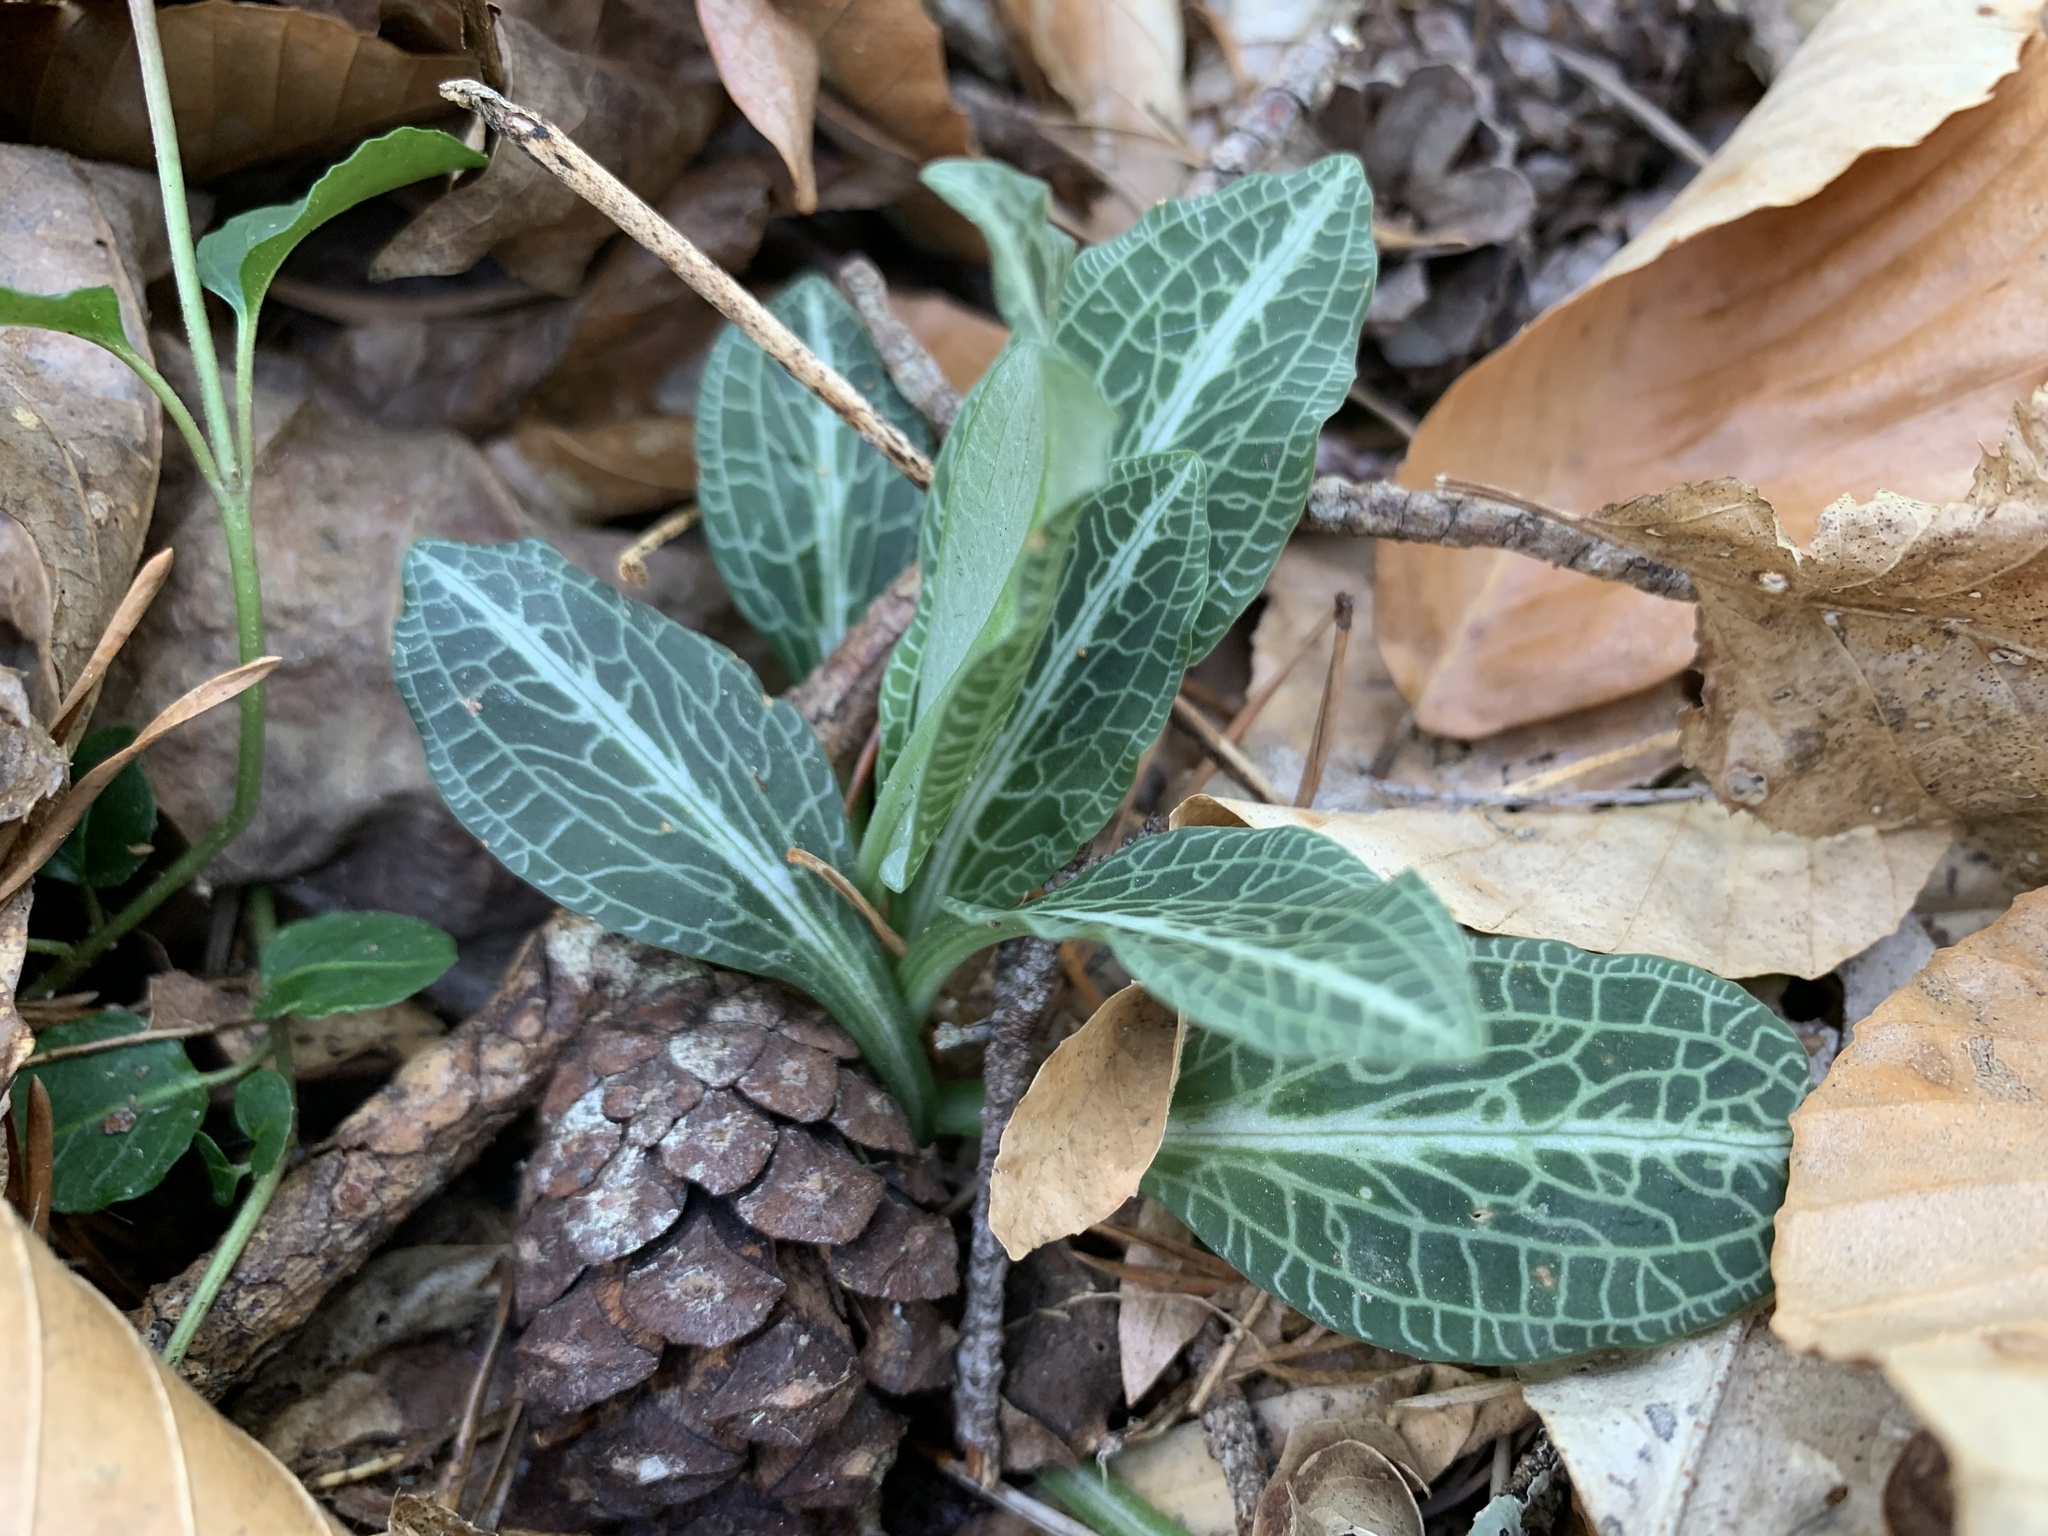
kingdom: Plantae
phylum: Tracheophyta
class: Liliopsida
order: Asparagales
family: Orchidaceae
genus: Goodyera
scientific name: Goodyera pubescens
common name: Downy rattlesnake-plantain
